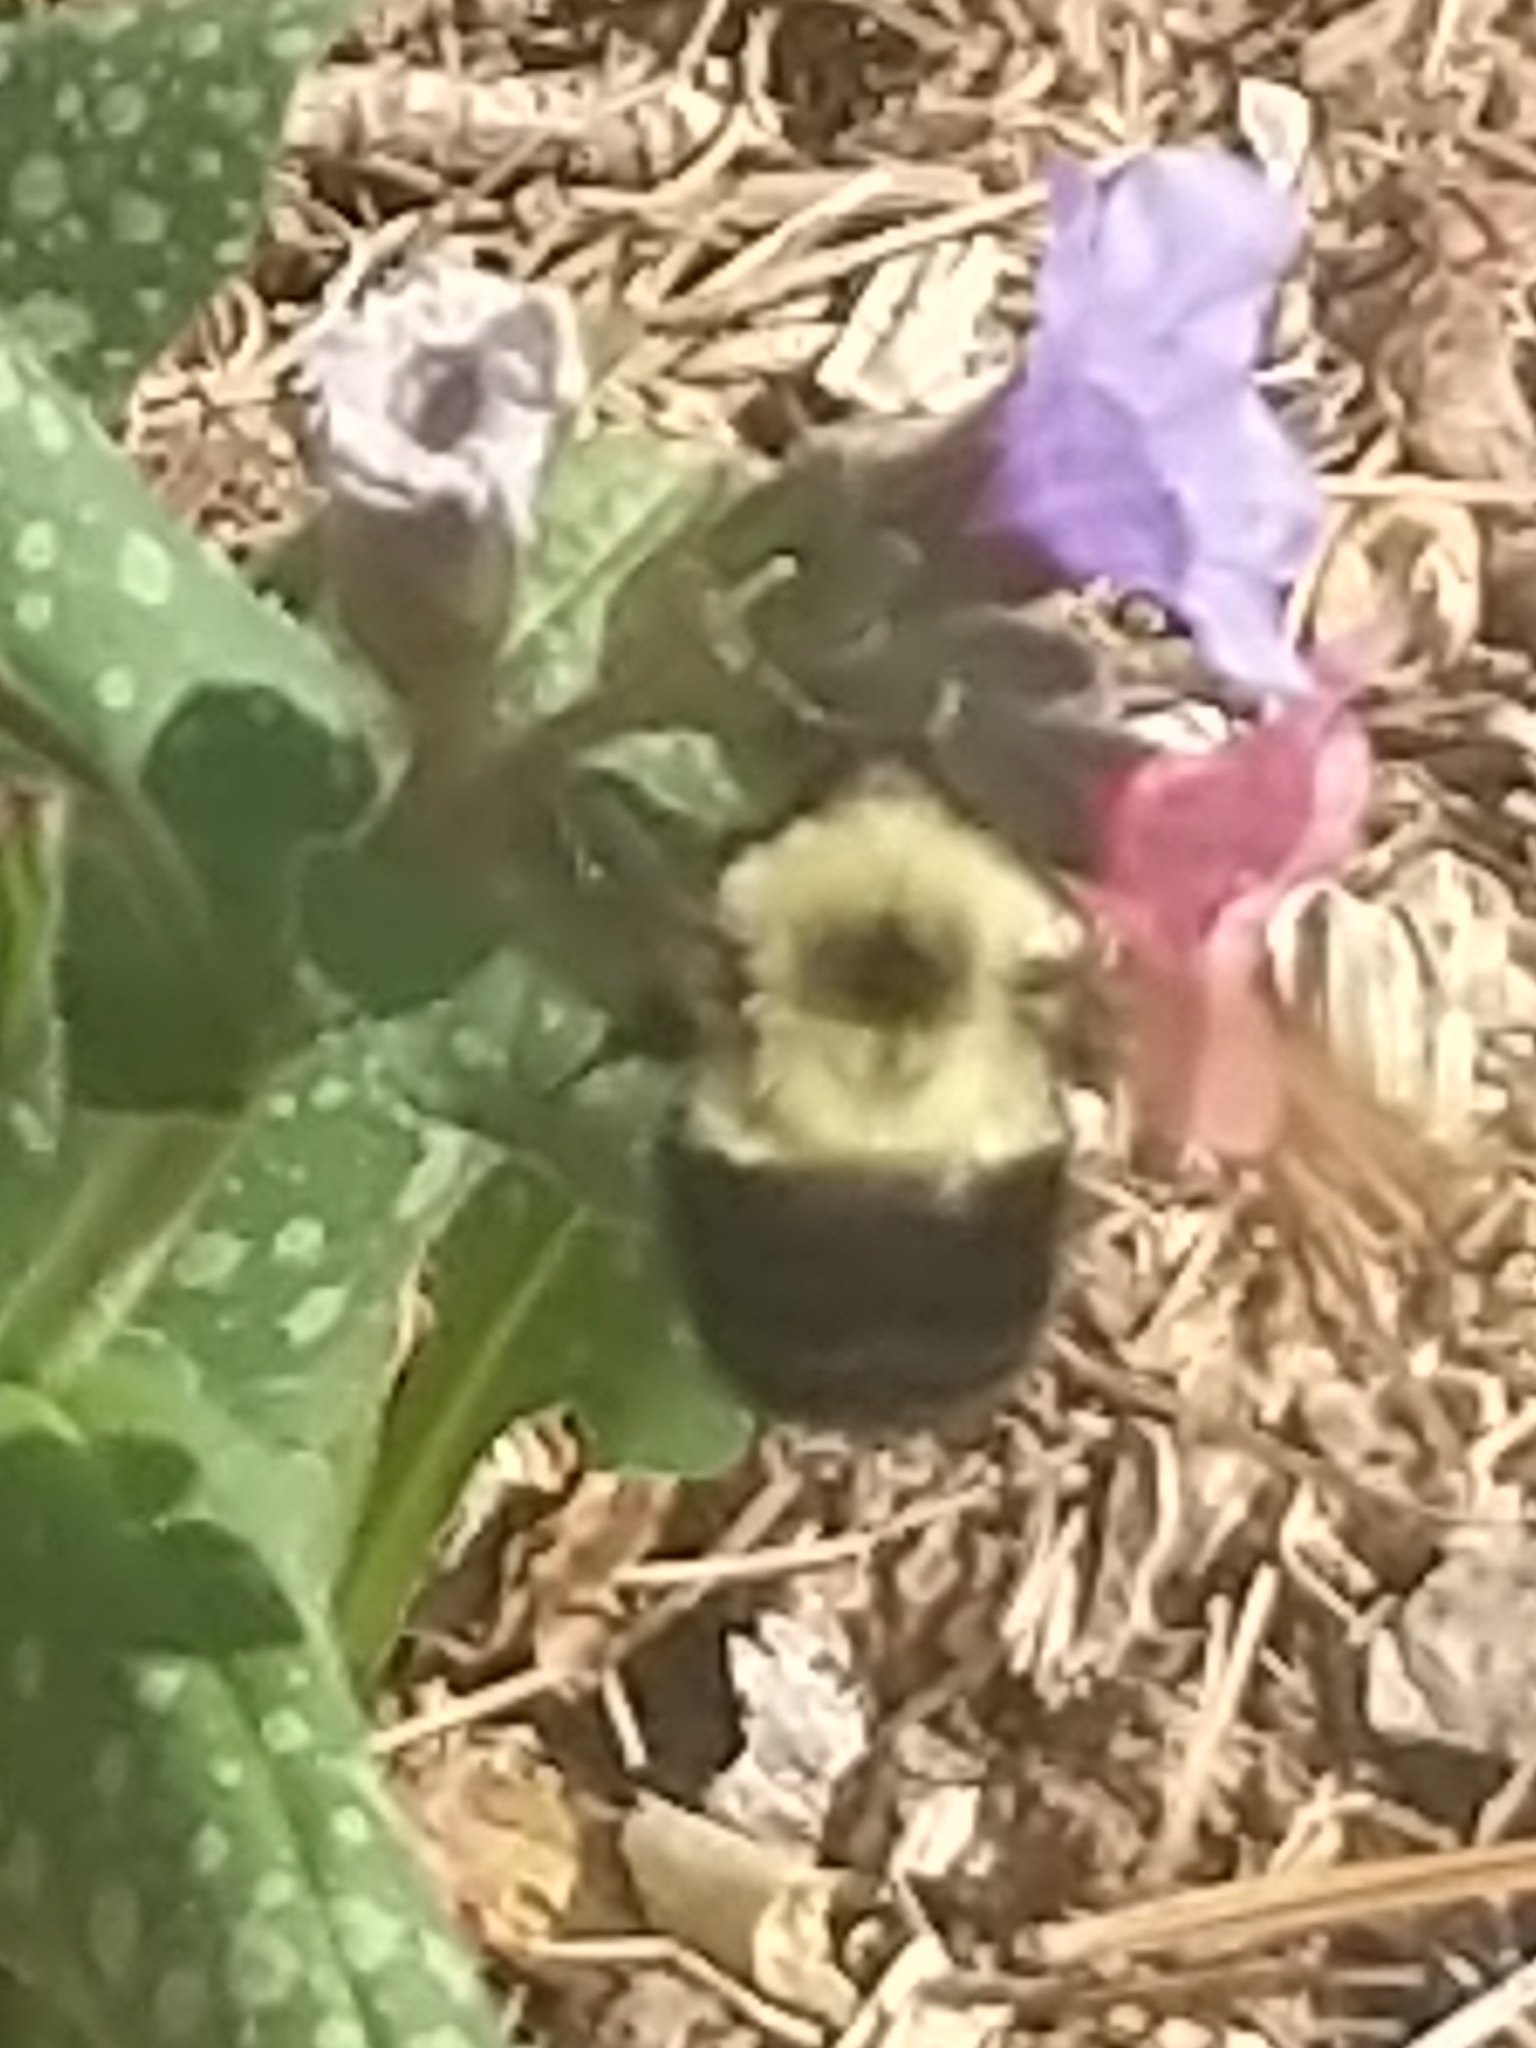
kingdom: Animalia
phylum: Arthropoda
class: Insecta
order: Hymenoptera
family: Apidae
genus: Bombus
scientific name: Bombus bimaculatus
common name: Two-spotted bumble bee
